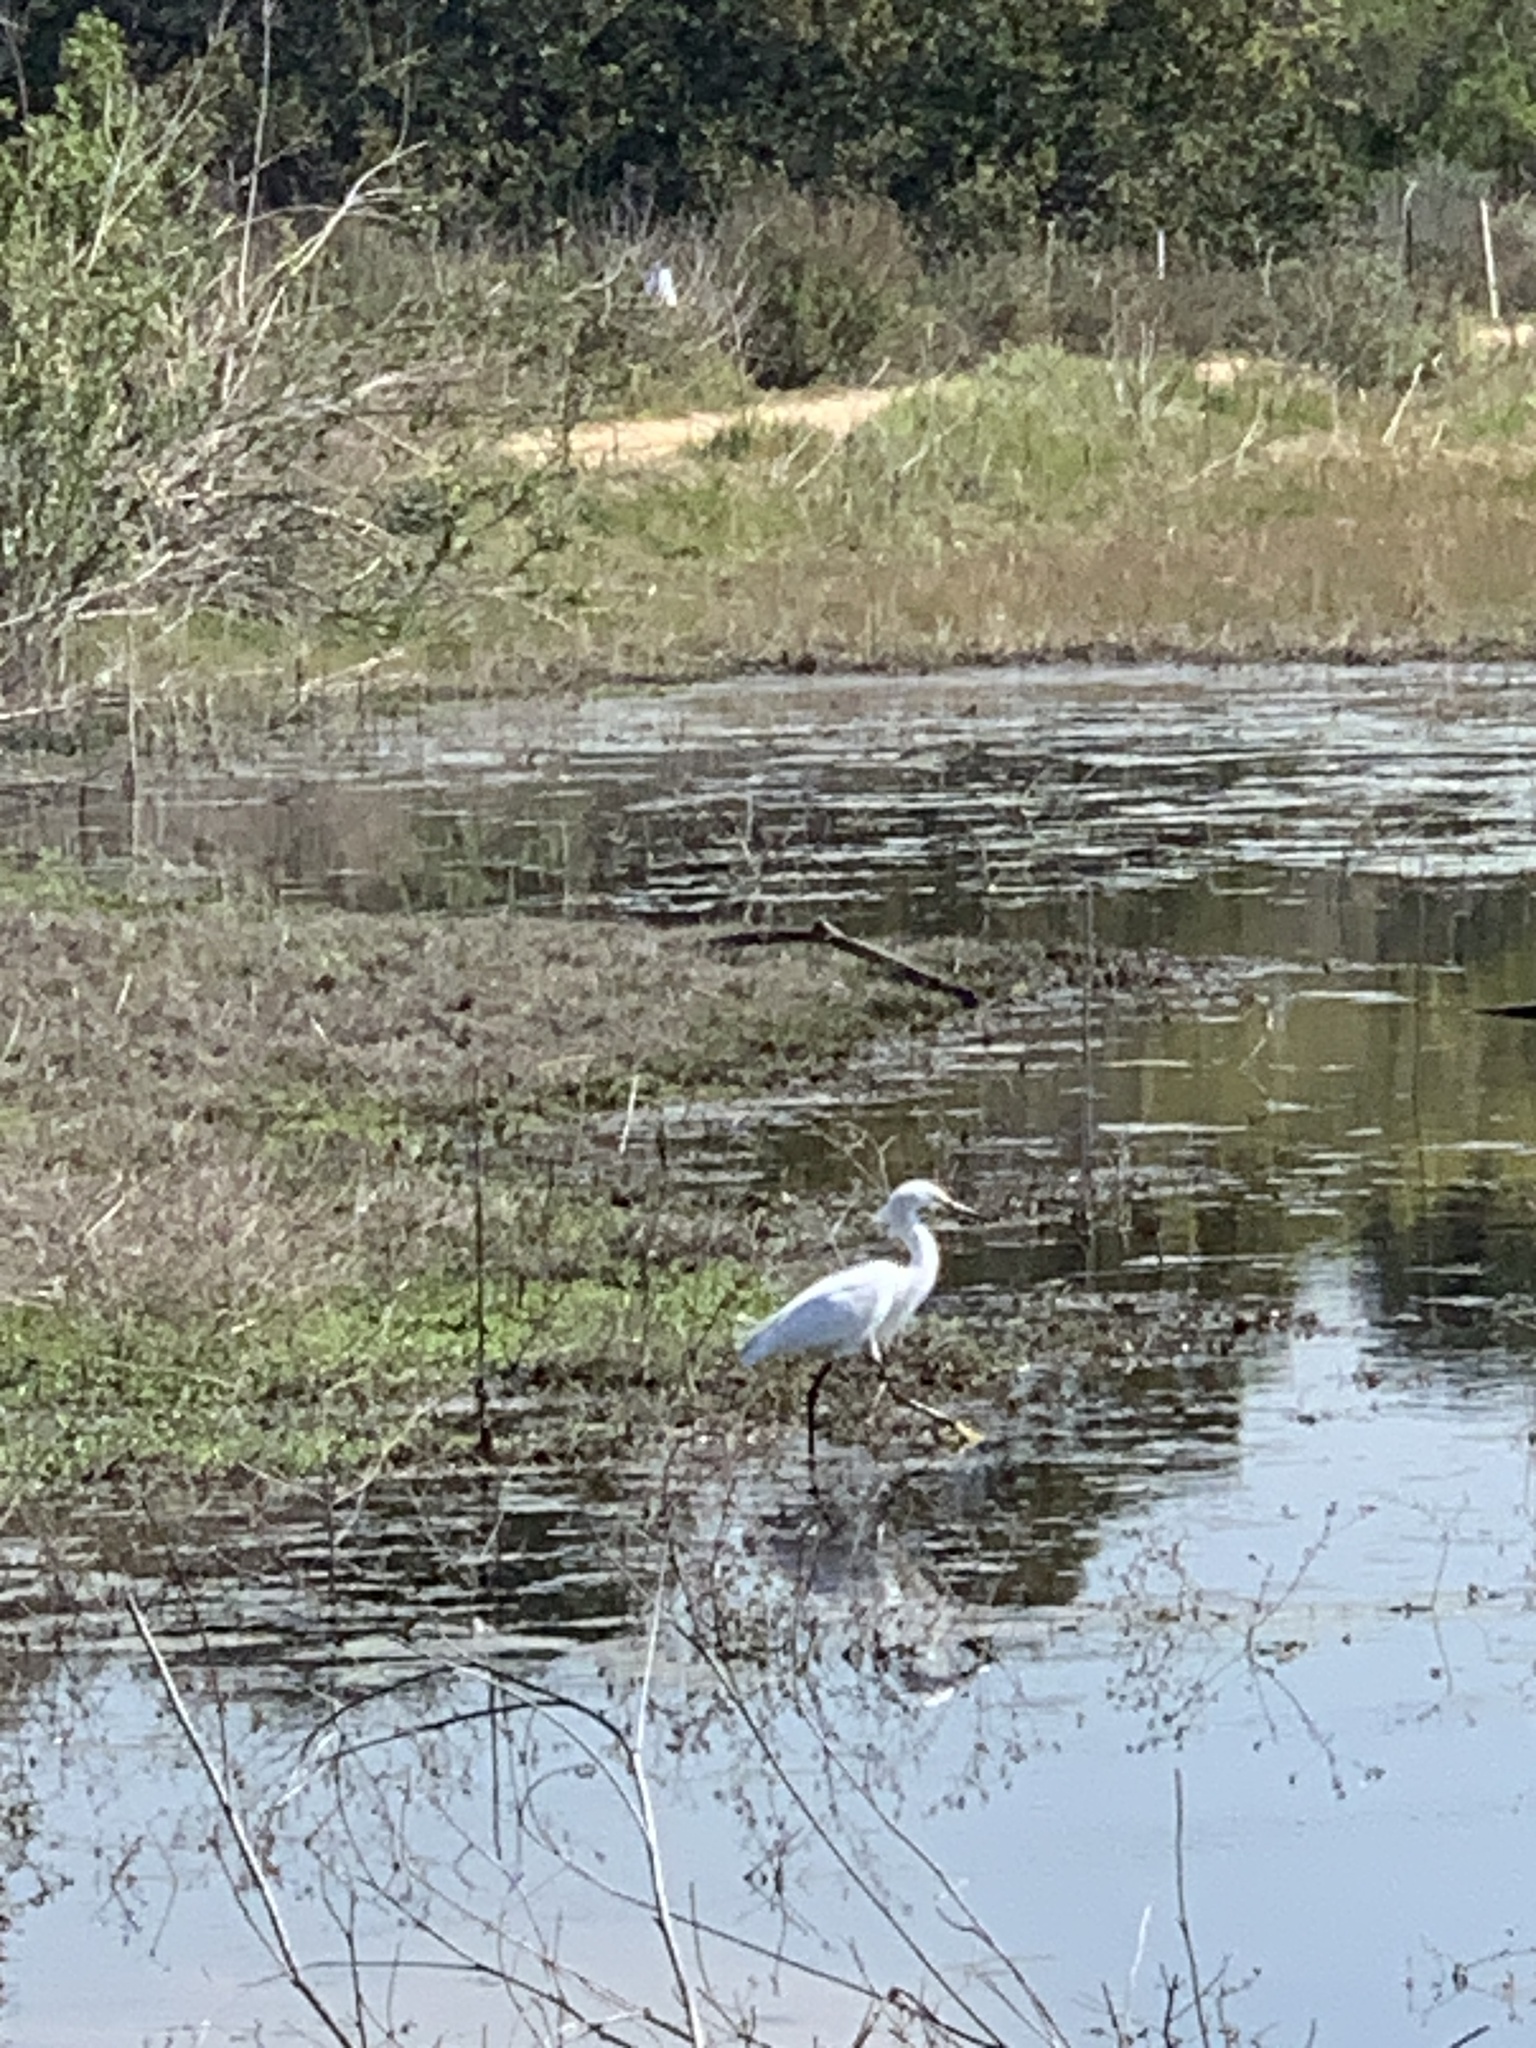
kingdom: Animalia
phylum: Chordata
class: Aves
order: Pelecaniformes
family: Ardeidae
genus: Egretta
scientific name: Egretta thula
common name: Snowy egret
